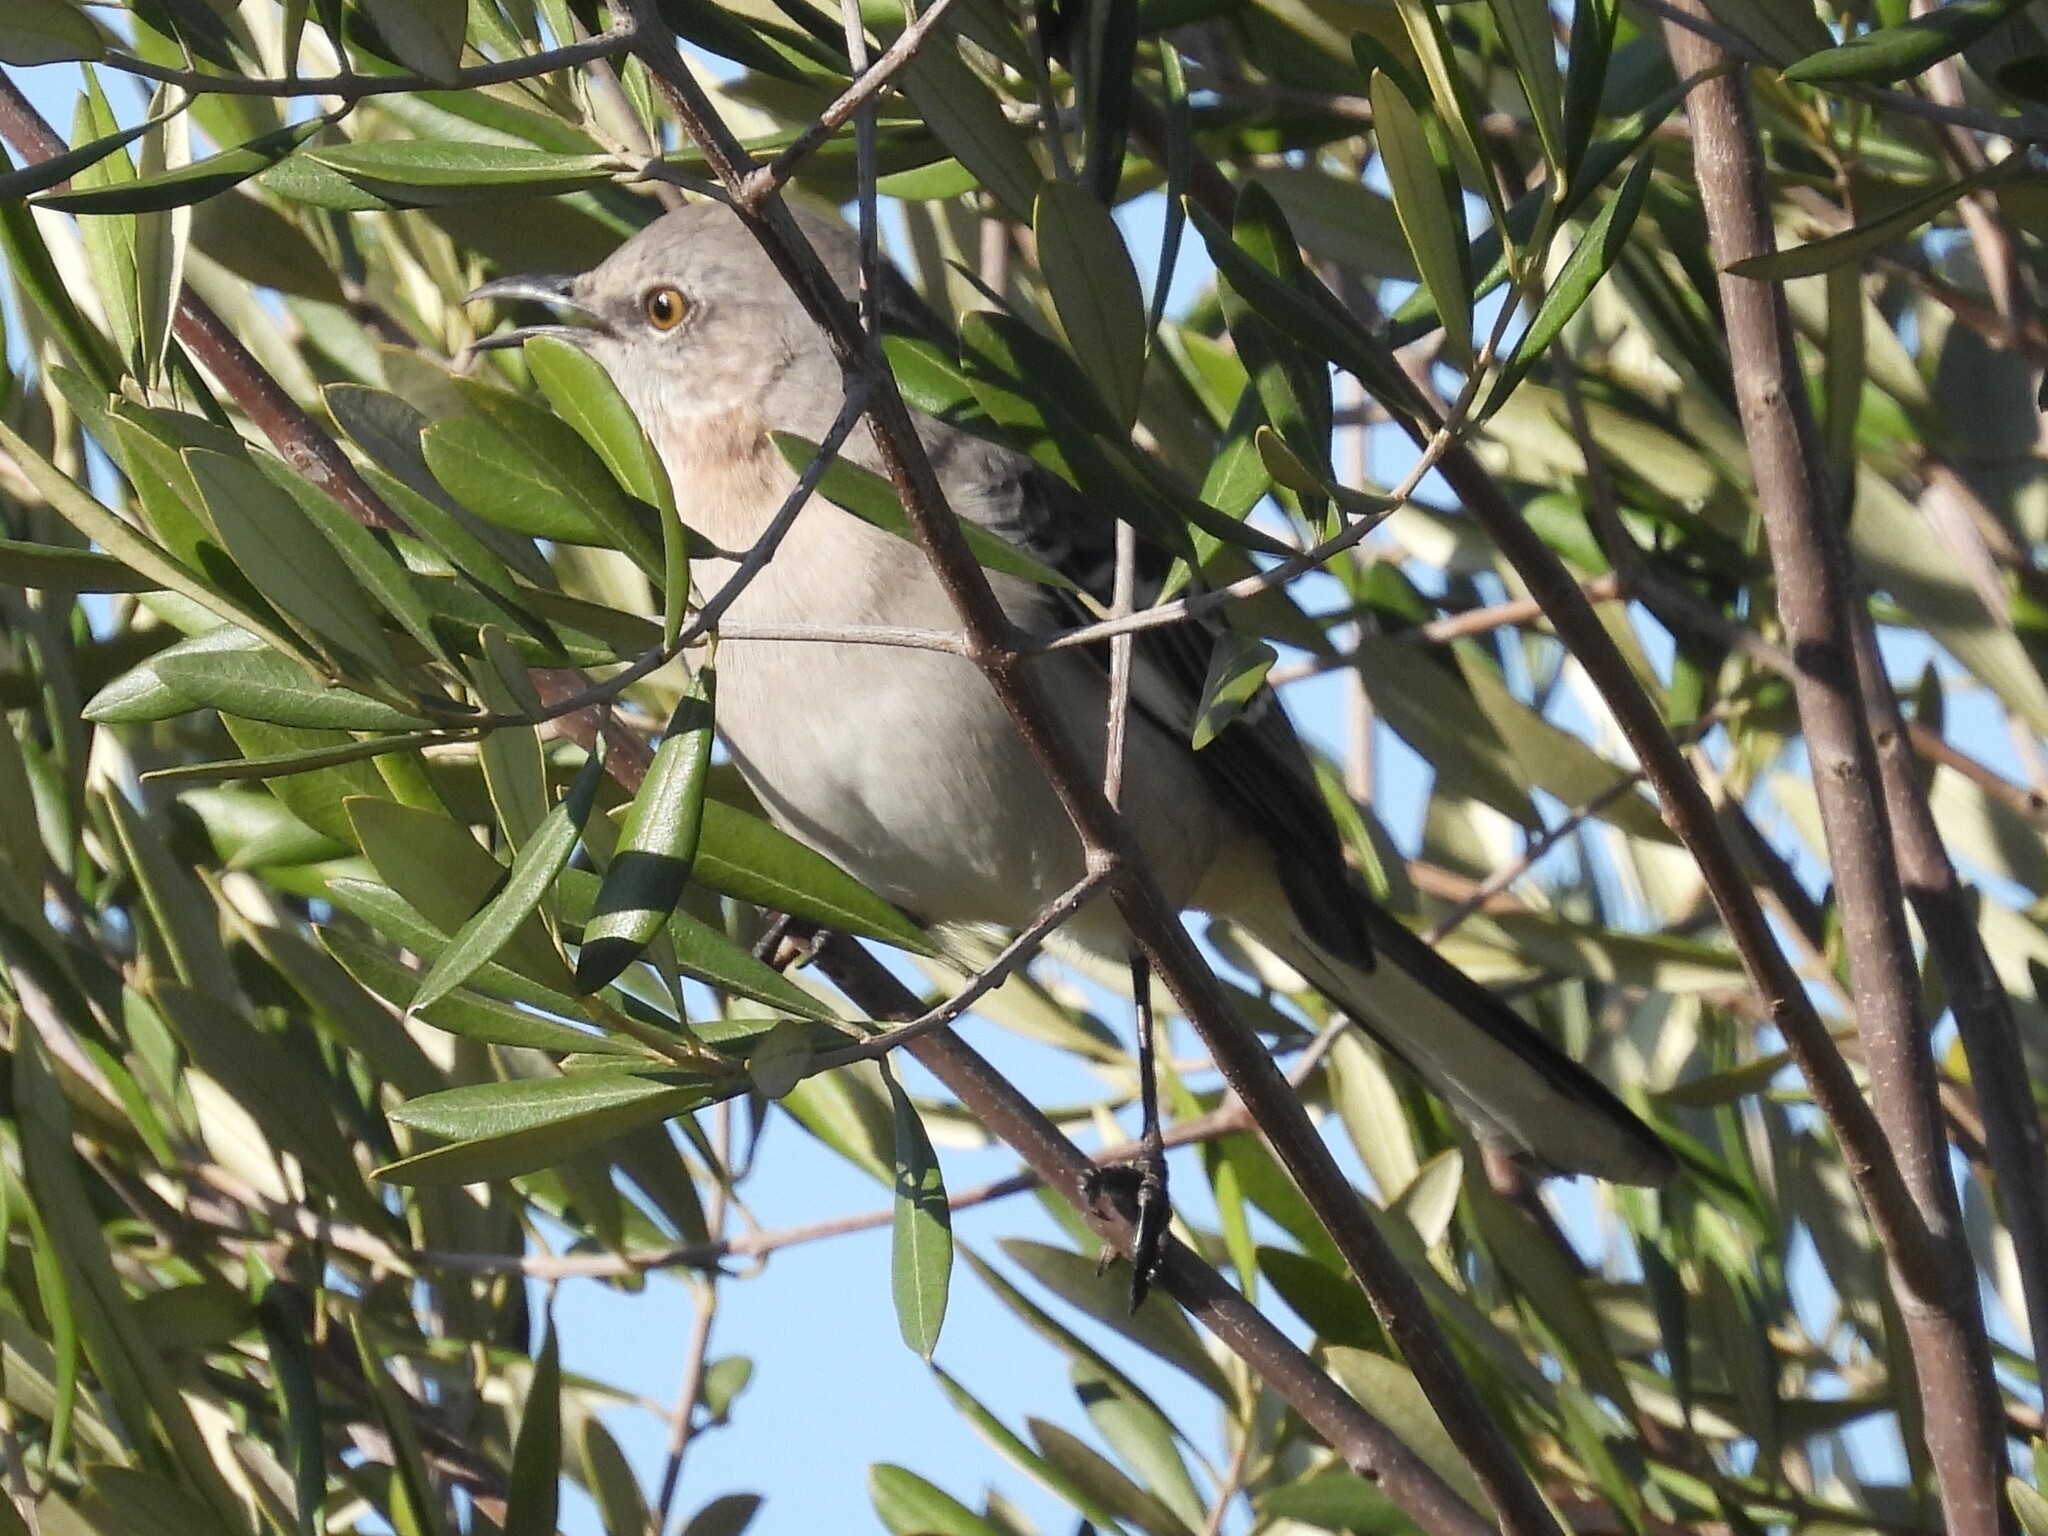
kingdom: Animalia
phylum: Chordata
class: Aves
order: Passeriformes
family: Mimidae
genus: Mimus
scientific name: Mimus polyglottos
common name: Northern mockingbird
